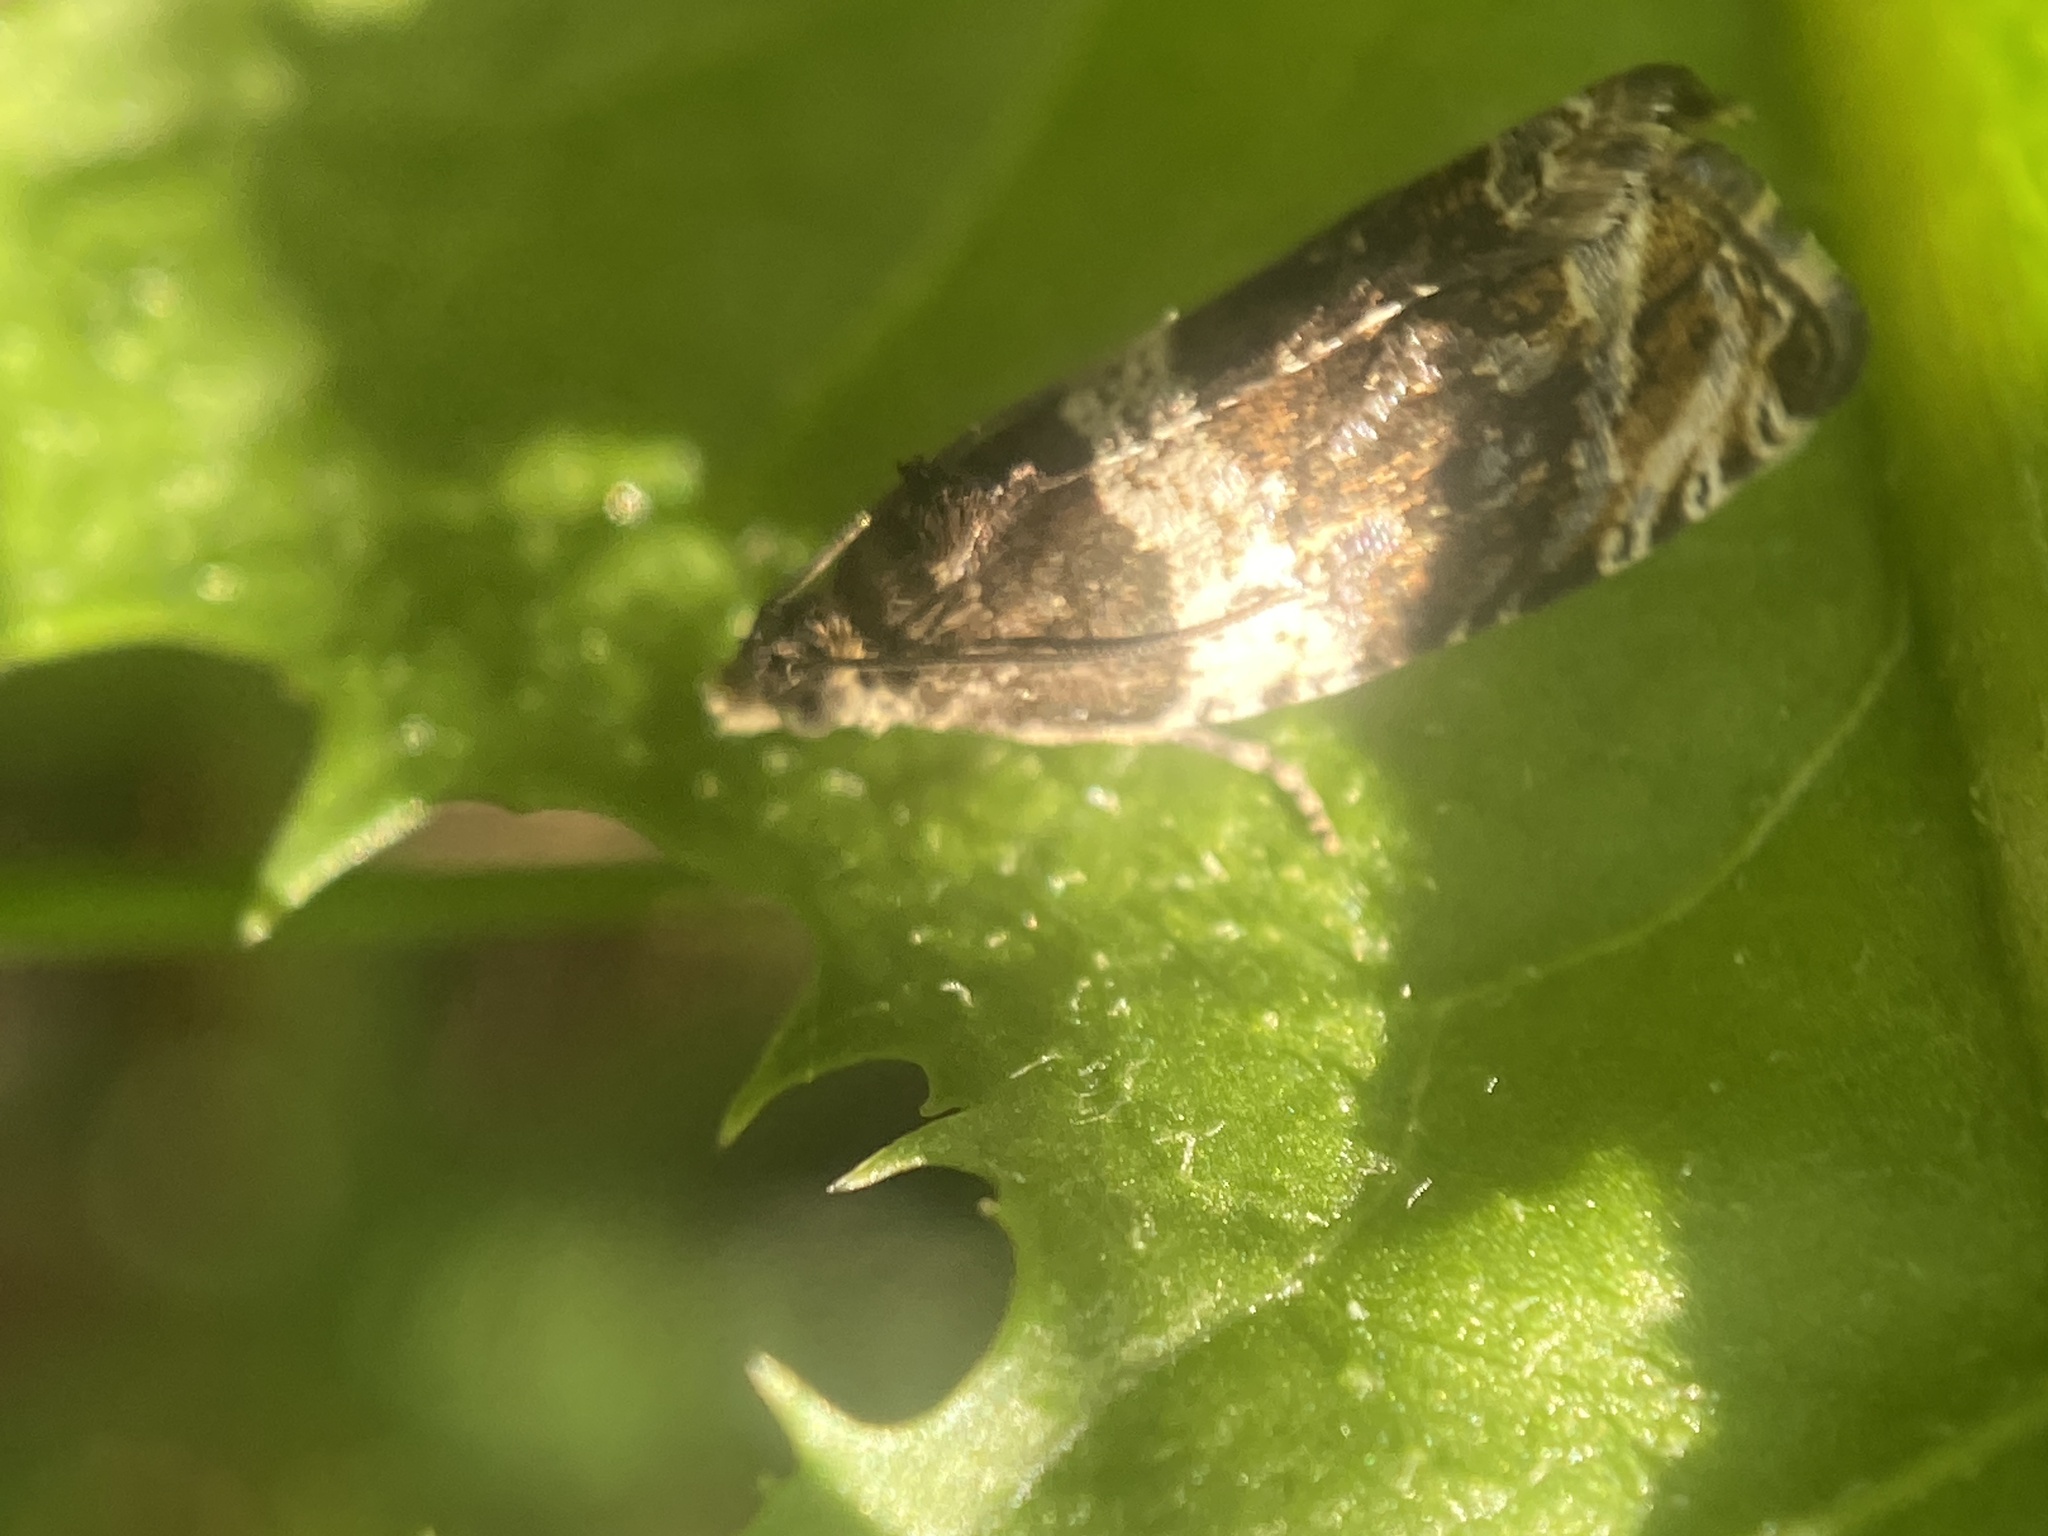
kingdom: Animalia
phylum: Arthropoda
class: Insecta
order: Lepidoptera
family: Tortricidae
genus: Olethreutes
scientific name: Olethreutes fasciatana
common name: Banded olethreutes moth
